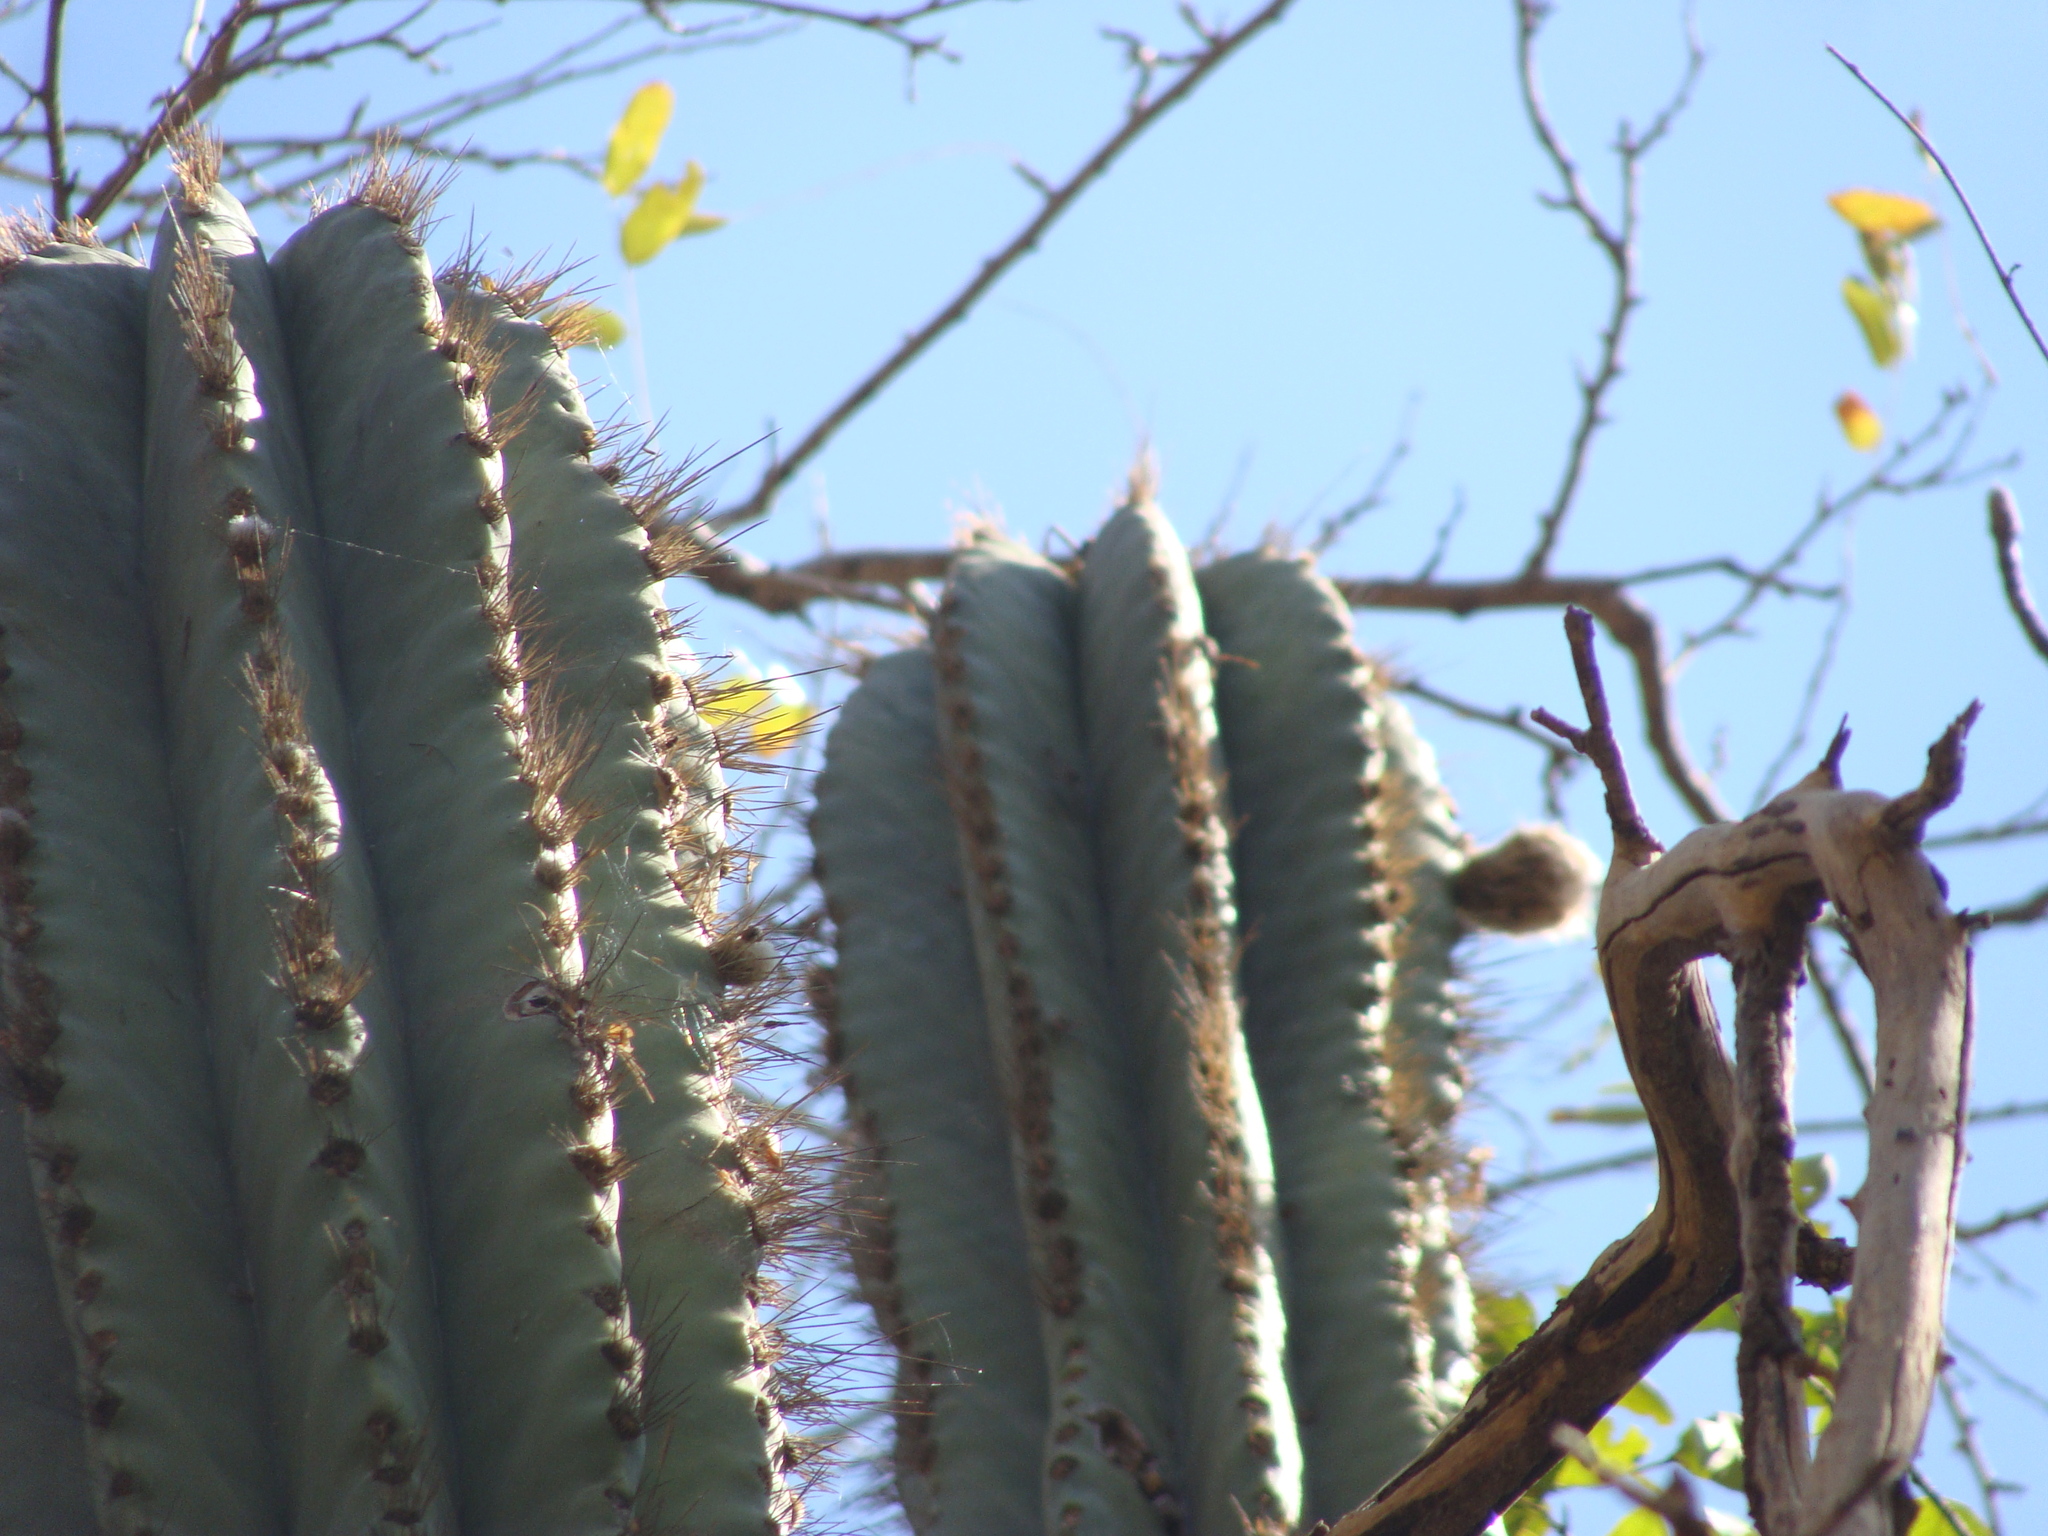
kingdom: Plantae
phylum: Tracheophyta
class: Magnoliopsida
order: Caryophyllales
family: Cactaceae
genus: Pachycereus
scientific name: Pachycereus pecten-aboriginum
